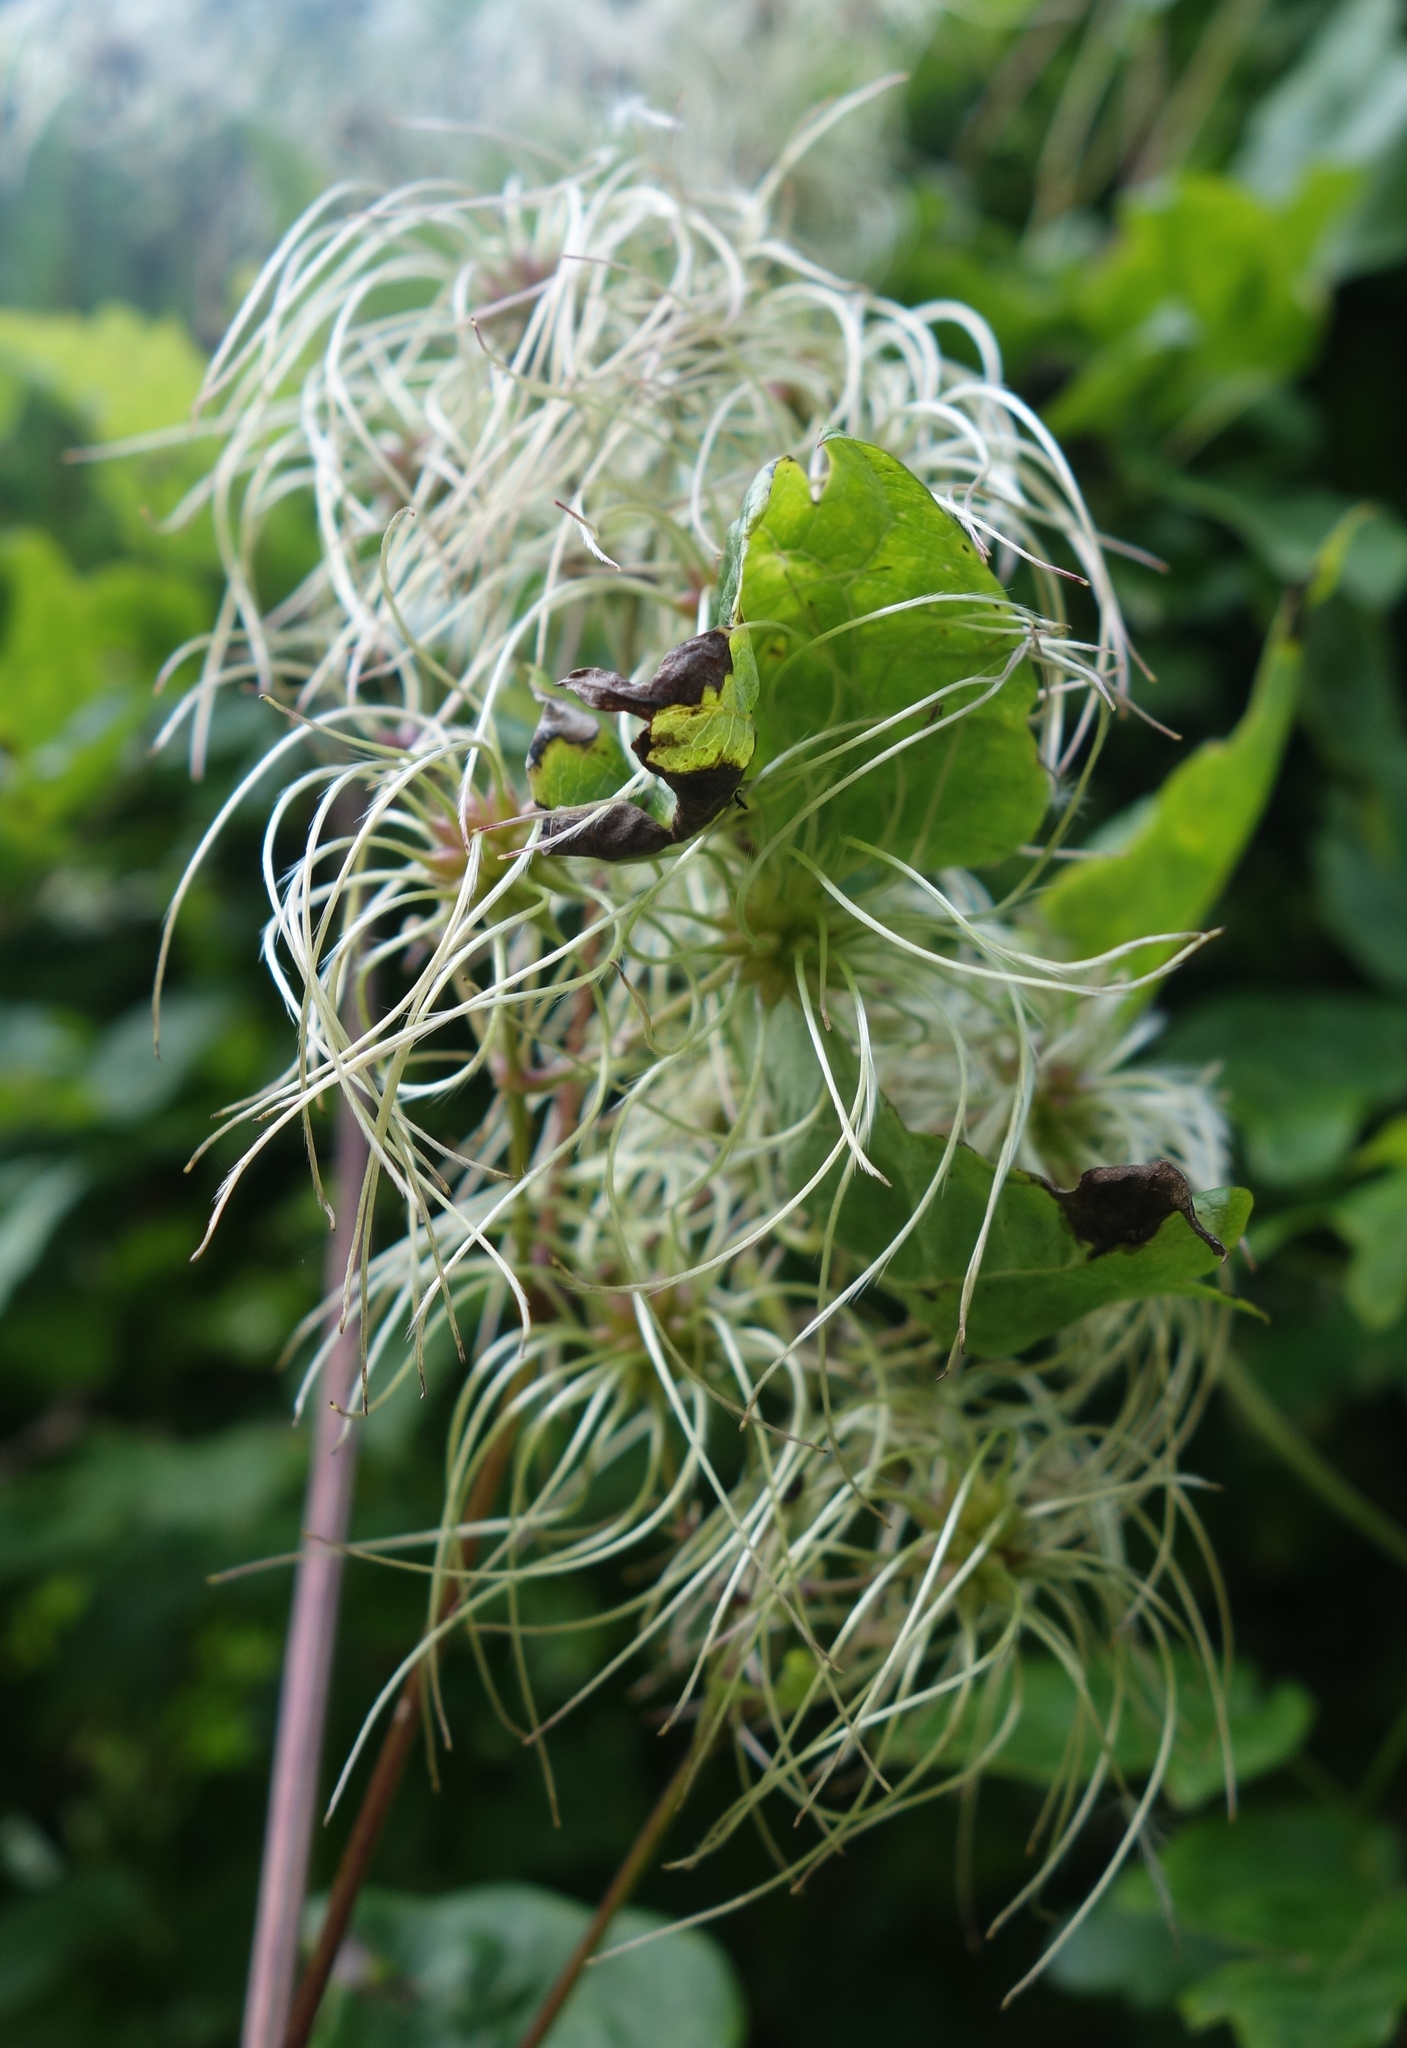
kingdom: Plantae
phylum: Tracheophyta
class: Magnoliopsida
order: Ranunculales
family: Ranunculaceae
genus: Clematis
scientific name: Clematis vitalba
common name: Evergreen clematis
